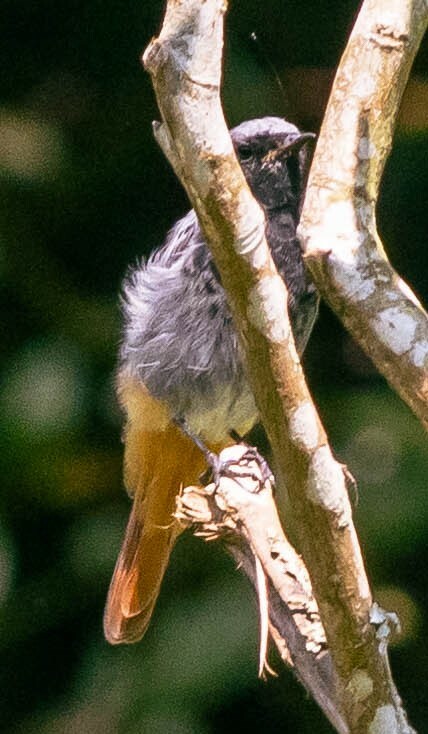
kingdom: Animalia
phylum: Chordata
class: Aves
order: Passeriformes
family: Muscicapidae
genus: Phoenicurus
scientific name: Phoenicurus ochruros
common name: Black redstart
